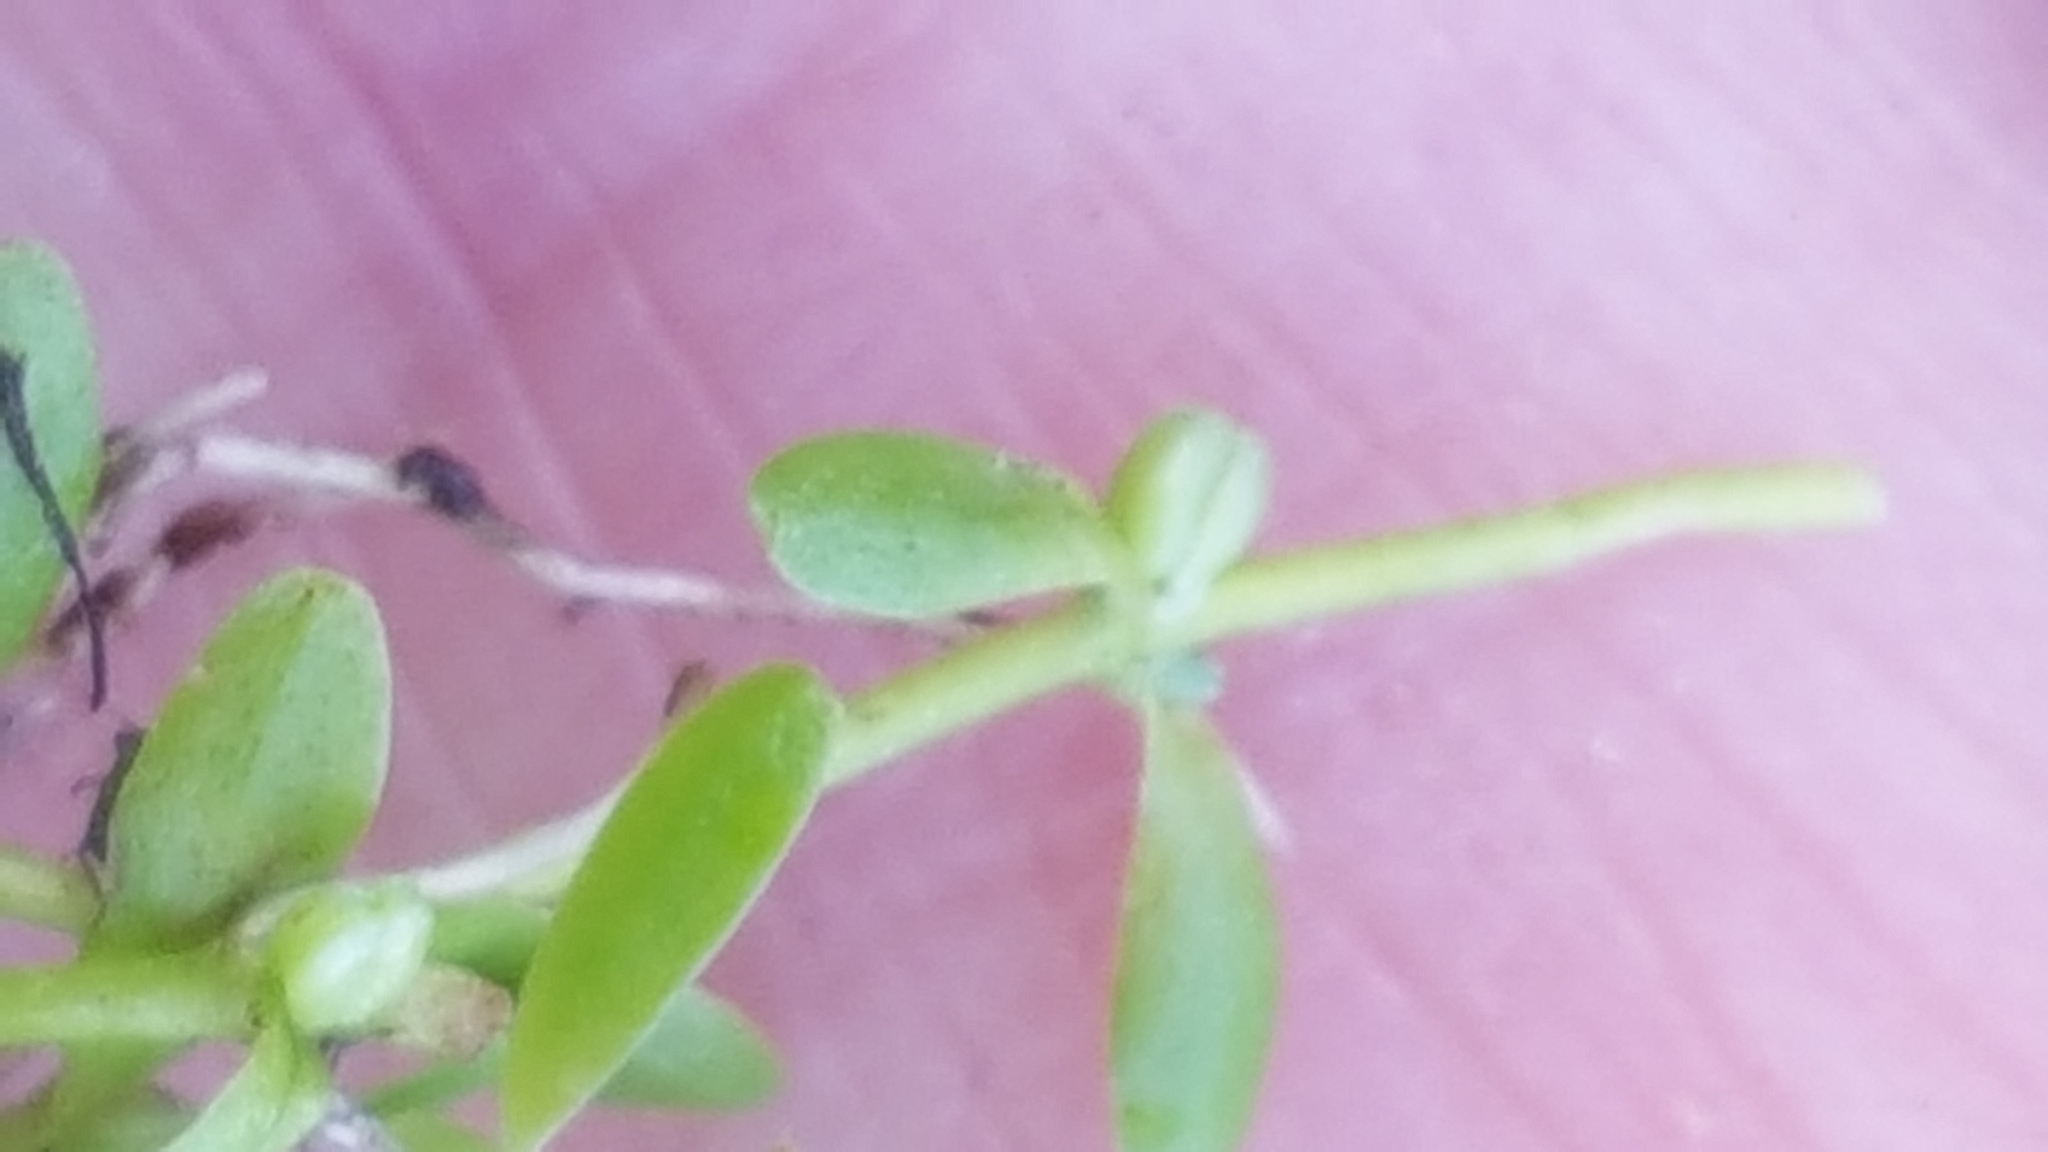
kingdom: Plantae
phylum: Tracheophyta
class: Magnoliopsida
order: Lamiales
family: Plantaginaceae
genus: Callitriche
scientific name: Callitriche palustris
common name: Spring water-starwort
